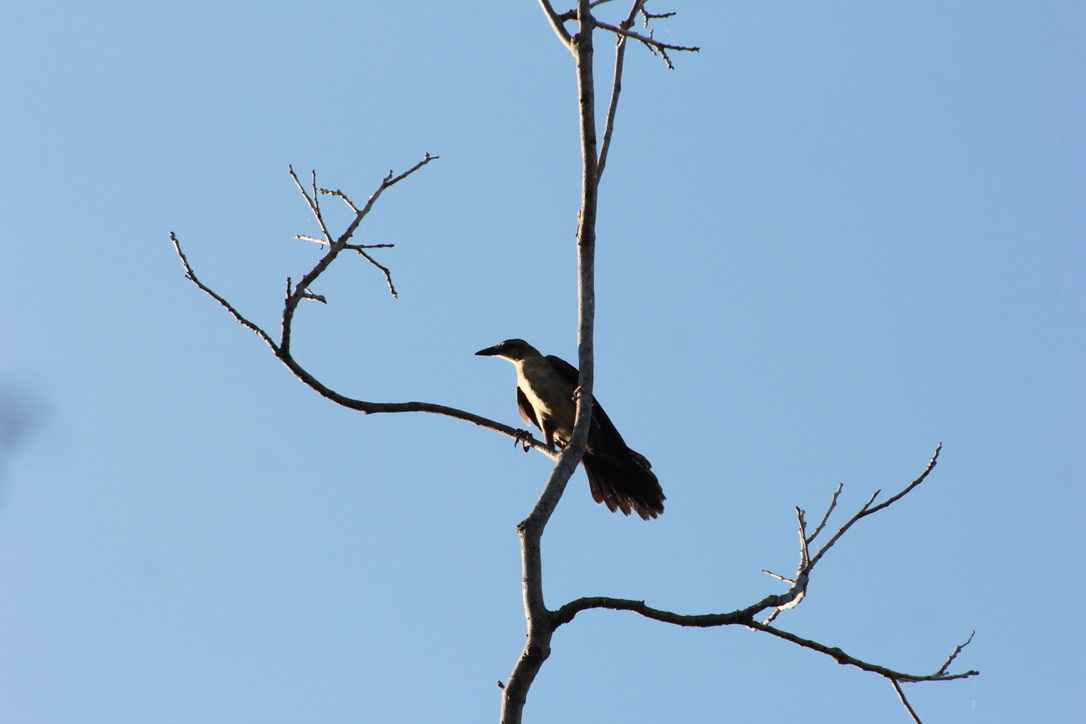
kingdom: Animalia
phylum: Chordata
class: Aves
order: Passeriformes
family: Icteridae
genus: Quiscalus
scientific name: Quiscalus mexicanus
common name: Great-tailed grackle
